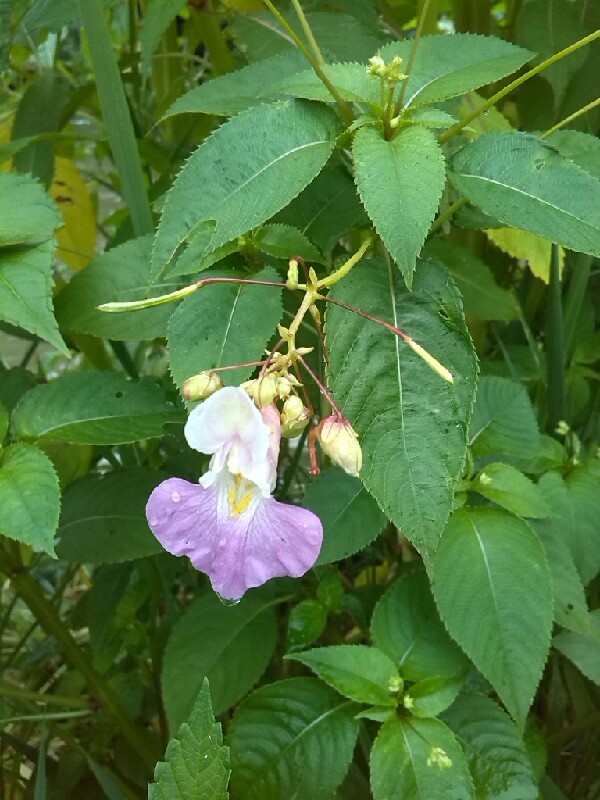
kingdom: Plantae
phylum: Tracheophyta
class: Magnoliopsida
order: Ericales
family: Balsaminaceae
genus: Impatiens
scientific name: Impatiens balfourii
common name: Balfour's touch-me-not
